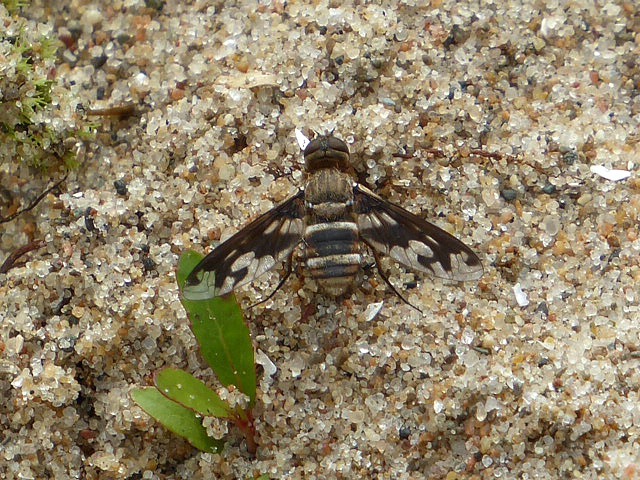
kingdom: Animalia
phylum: Arthropoda
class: Insecta
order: Diptera
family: Bombyliidae
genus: Exoprosopa
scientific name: Exoprosopa fascipennis
